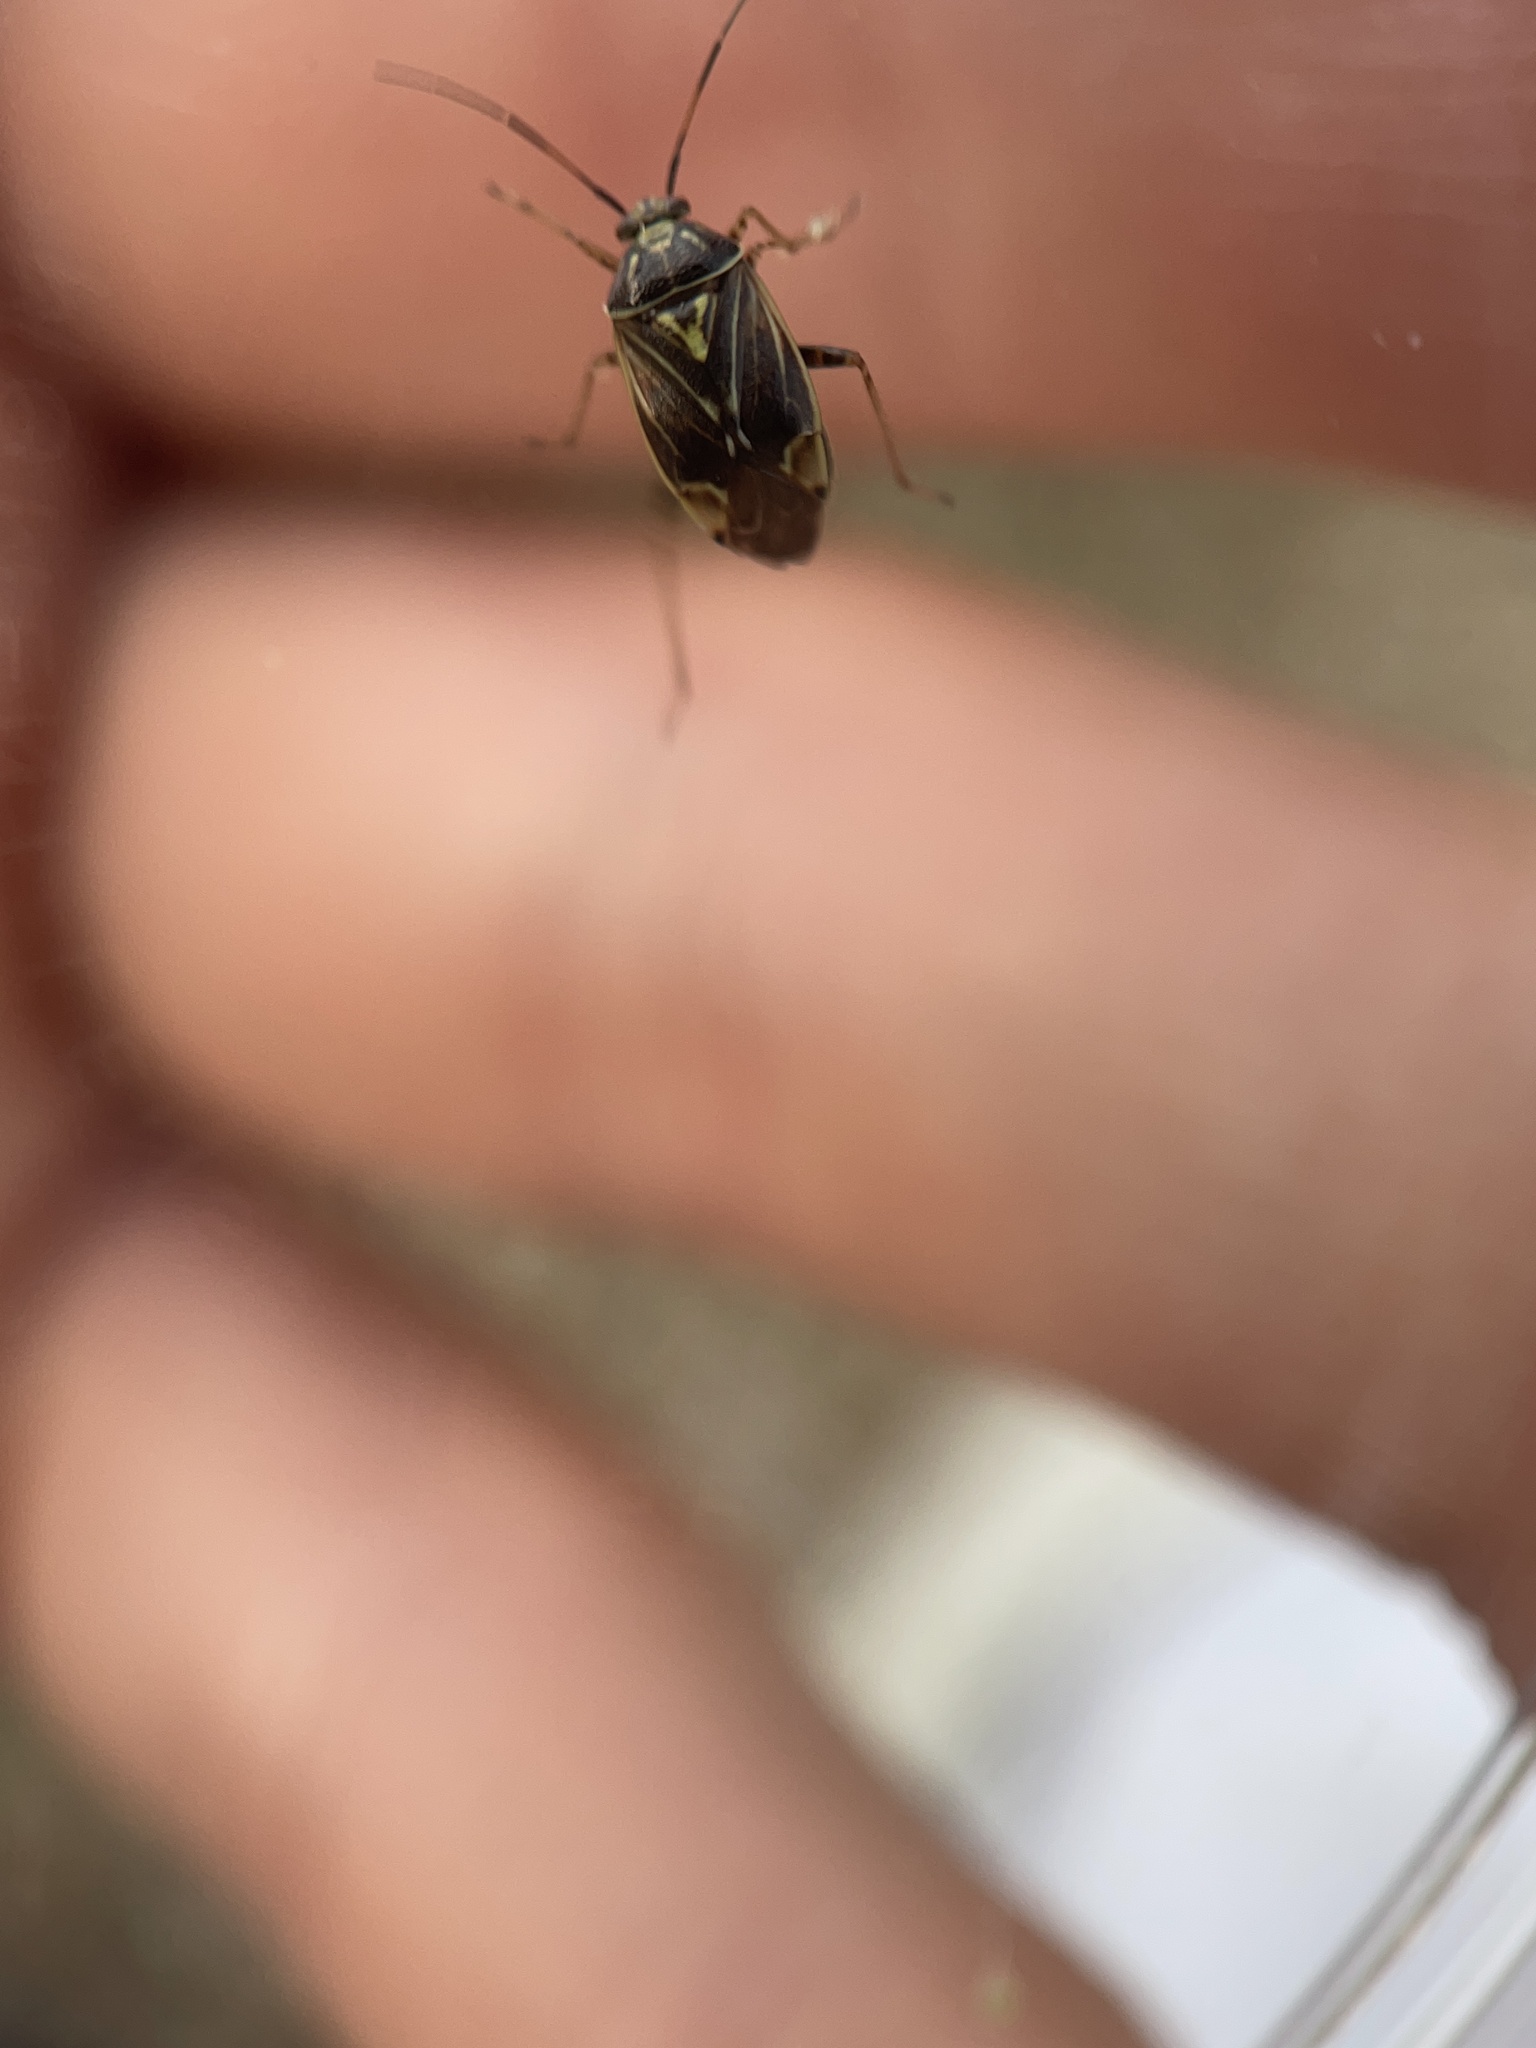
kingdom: Animalia
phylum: Arthropoda
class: Insecta
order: Hemiptera
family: Miridae
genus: Lygus
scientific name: Lygus lineolaris
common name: North american tarnished plant bug
